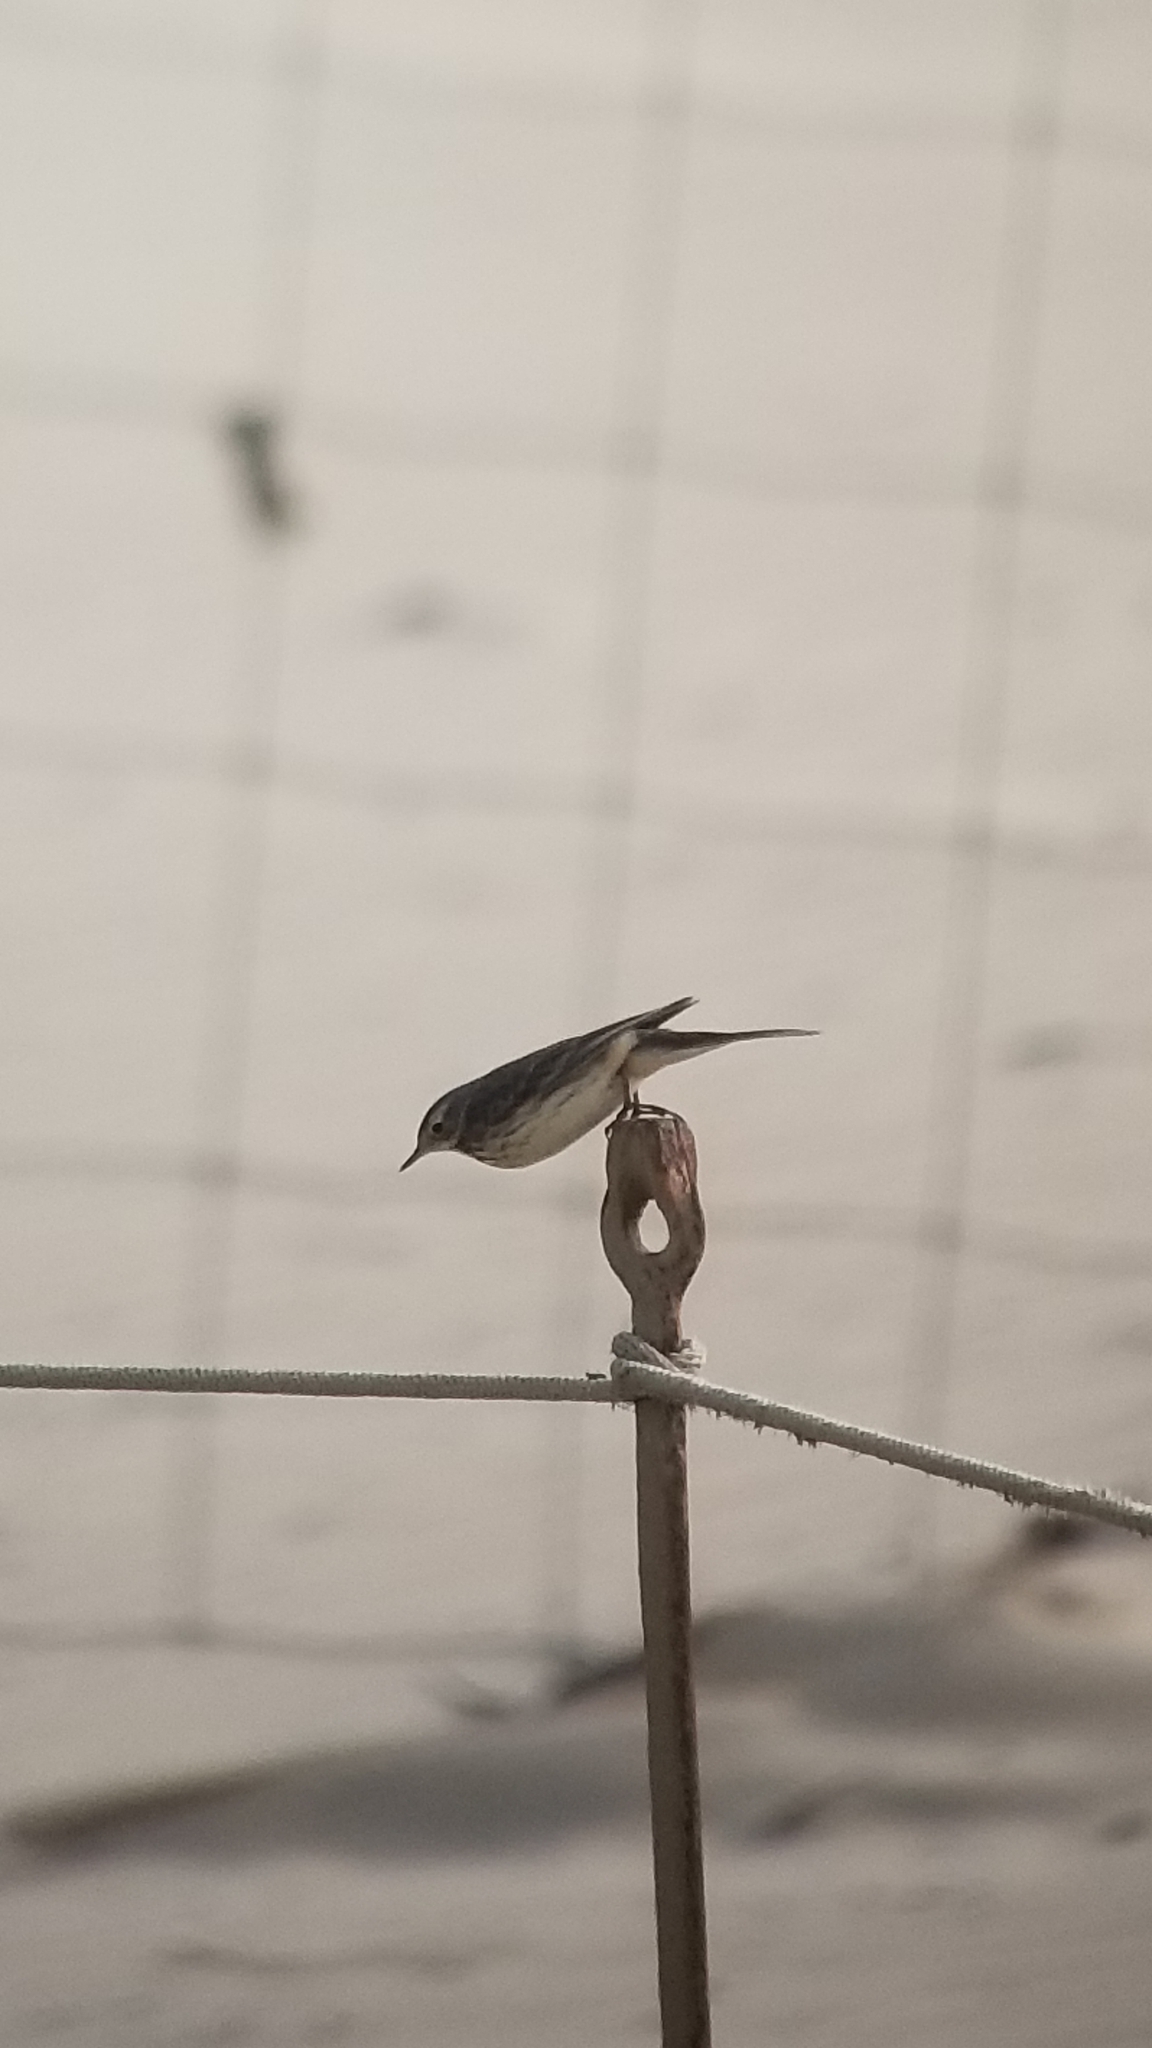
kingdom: Animalia
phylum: Chordata
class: Aves
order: Passeriformes
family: Motacillidae
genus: Anthus
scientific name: Anthus rubescens
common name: Buff-bellied pipit
